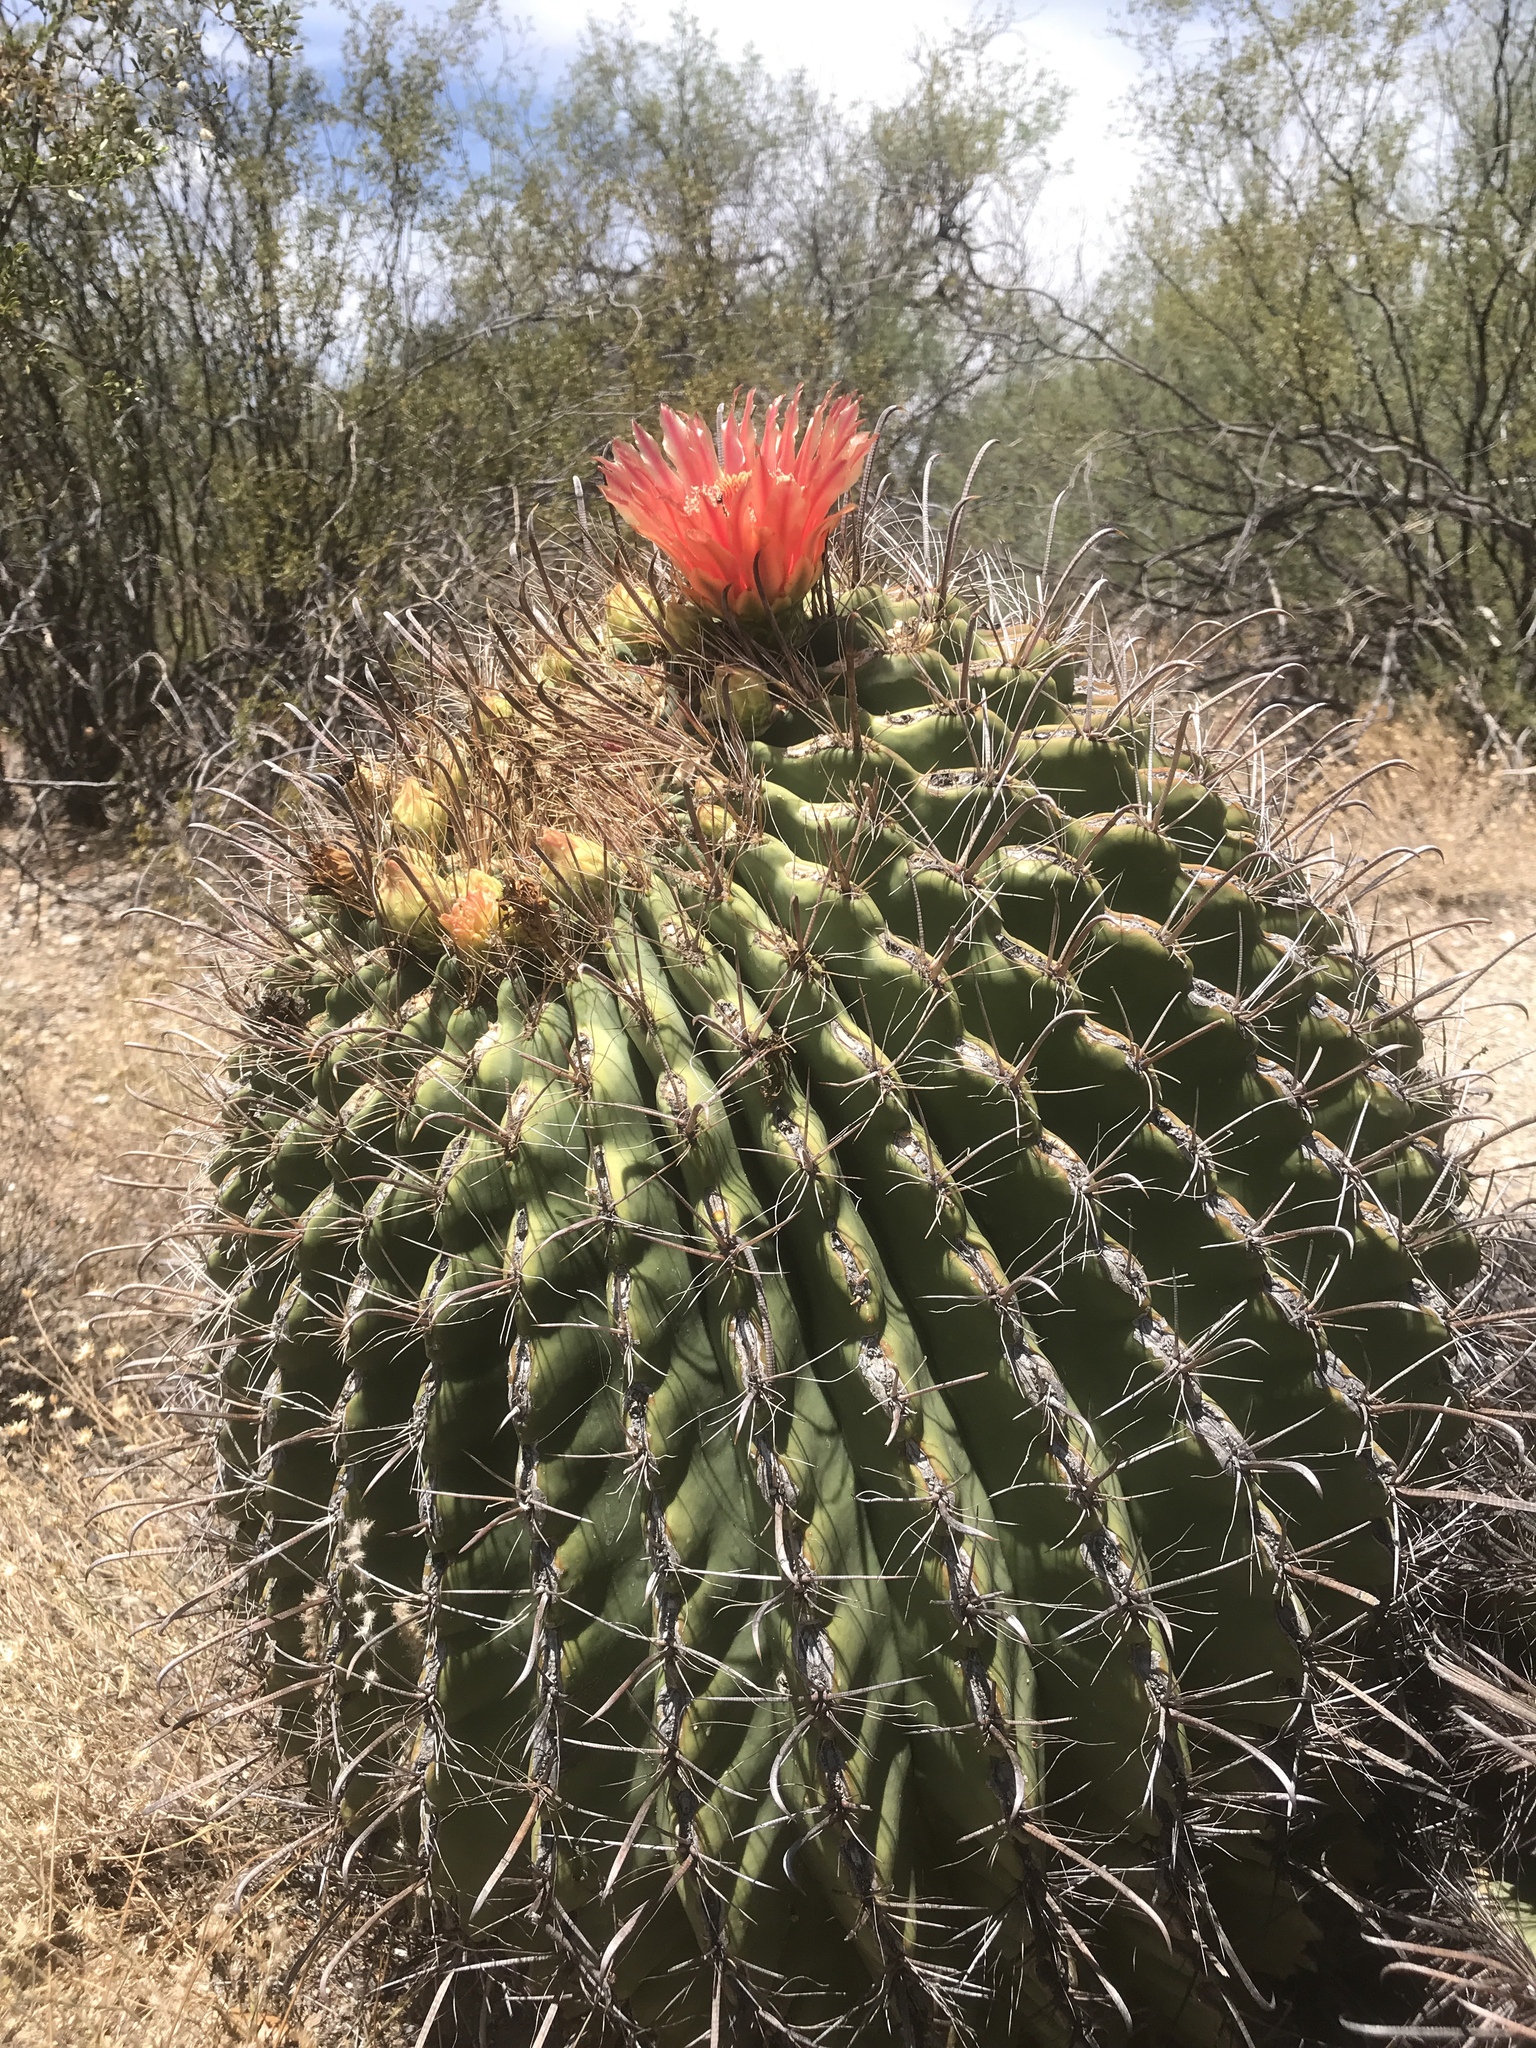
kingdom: Plantae
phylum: Tracheophyta
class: Magnoliopsida
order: Caryophyllales
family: Cactaceae
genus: Ferocactus
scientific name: Ferocactus wislizeni
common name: Candy barrel cactus
